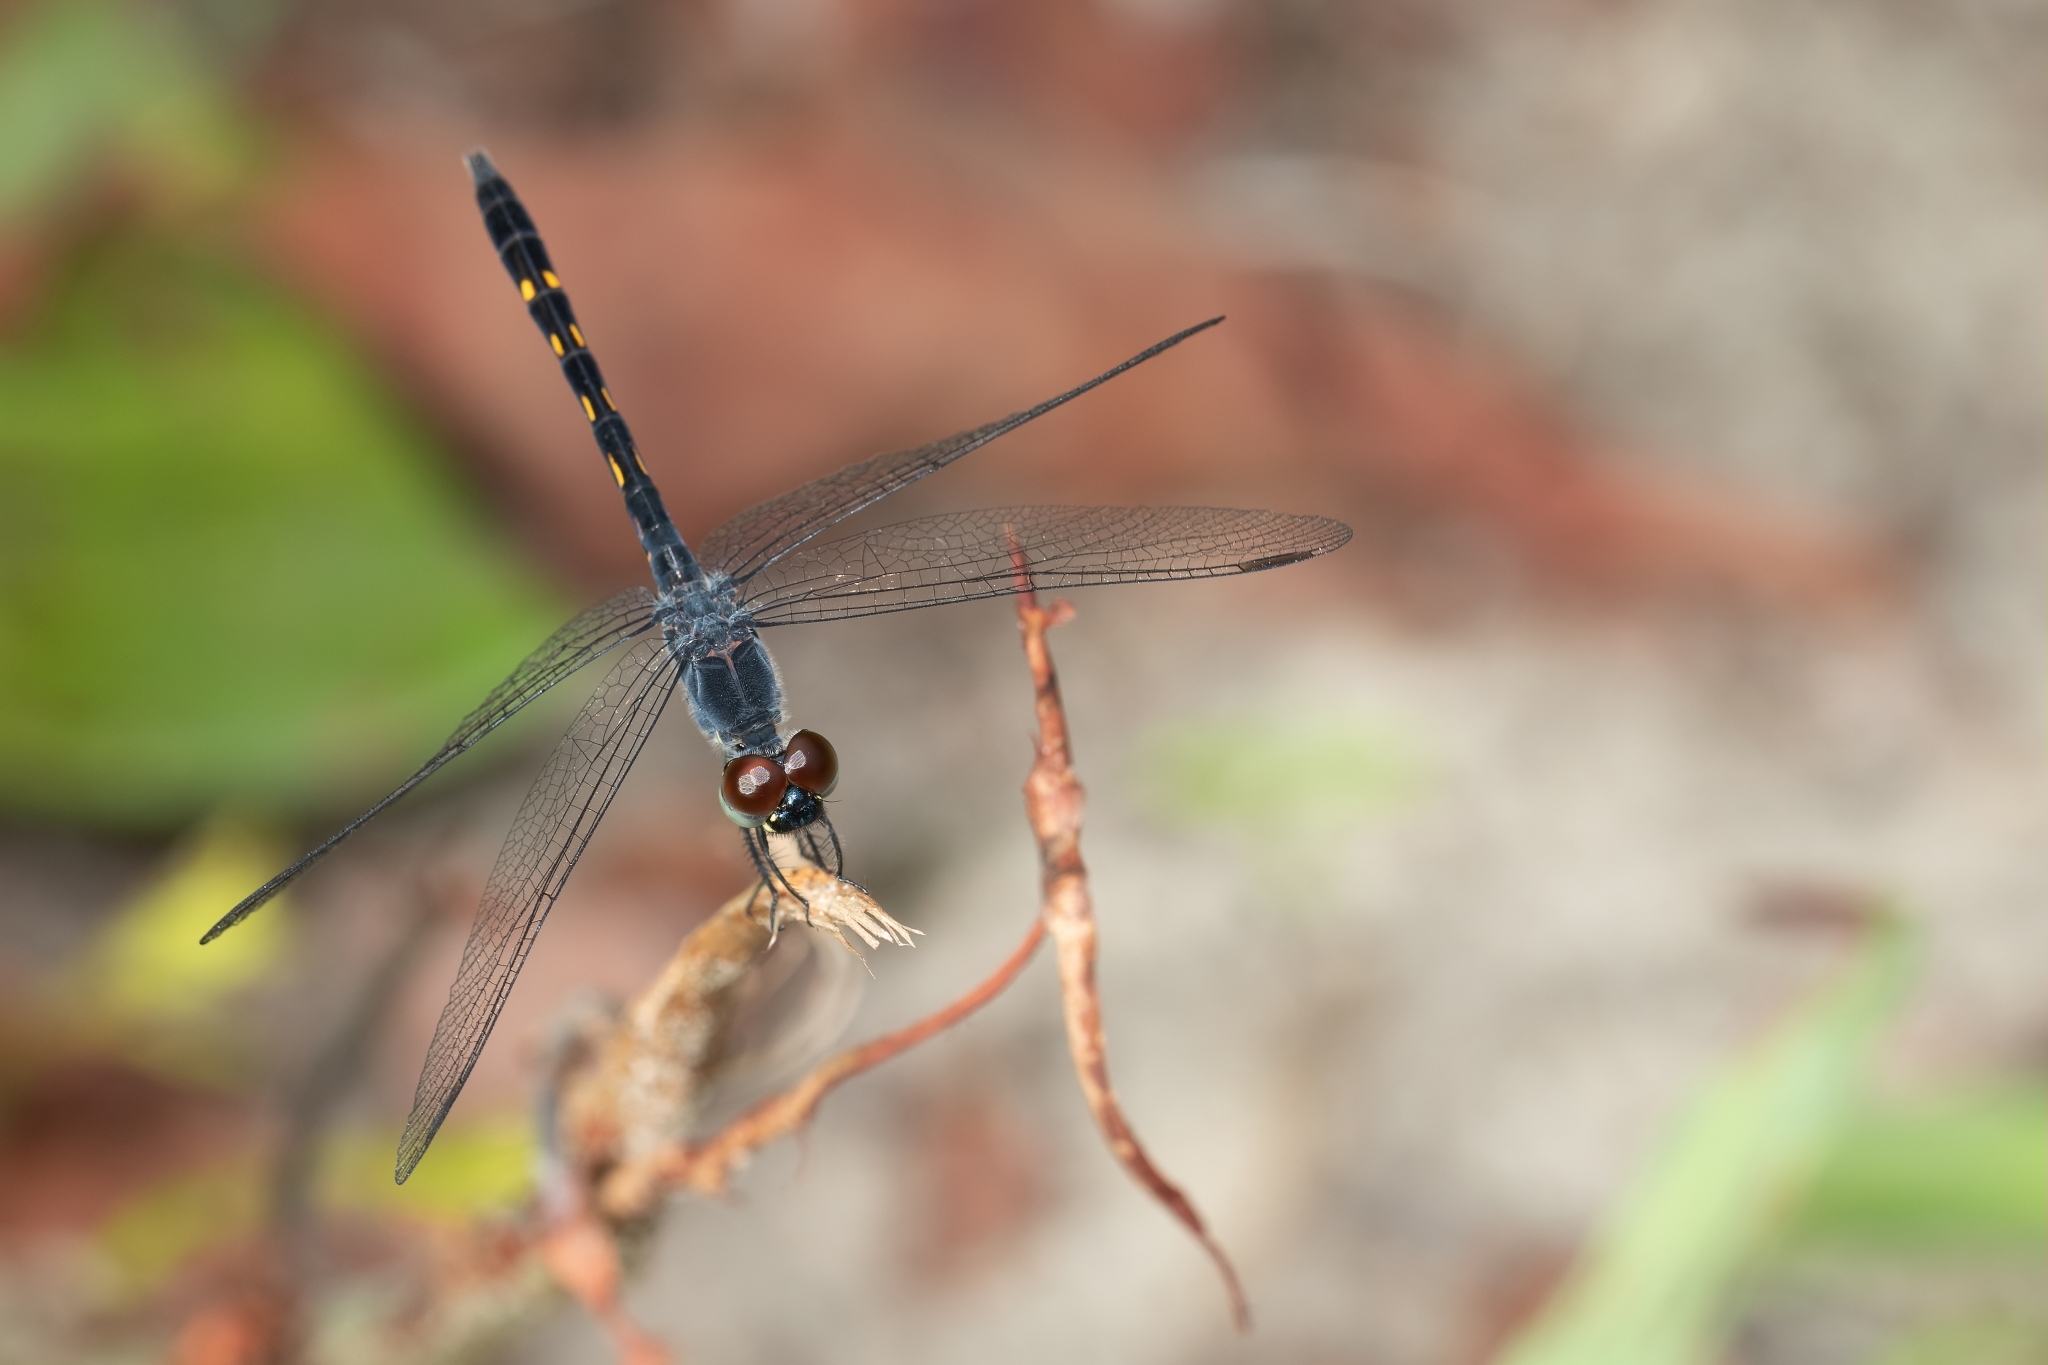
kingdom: Animalia
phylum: Arthropoda
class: Insecta
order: Odonata
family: Libellulidae
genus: Erythrodiplax
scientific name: Erythrodiplax berenice
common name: Seaside dragonlet
